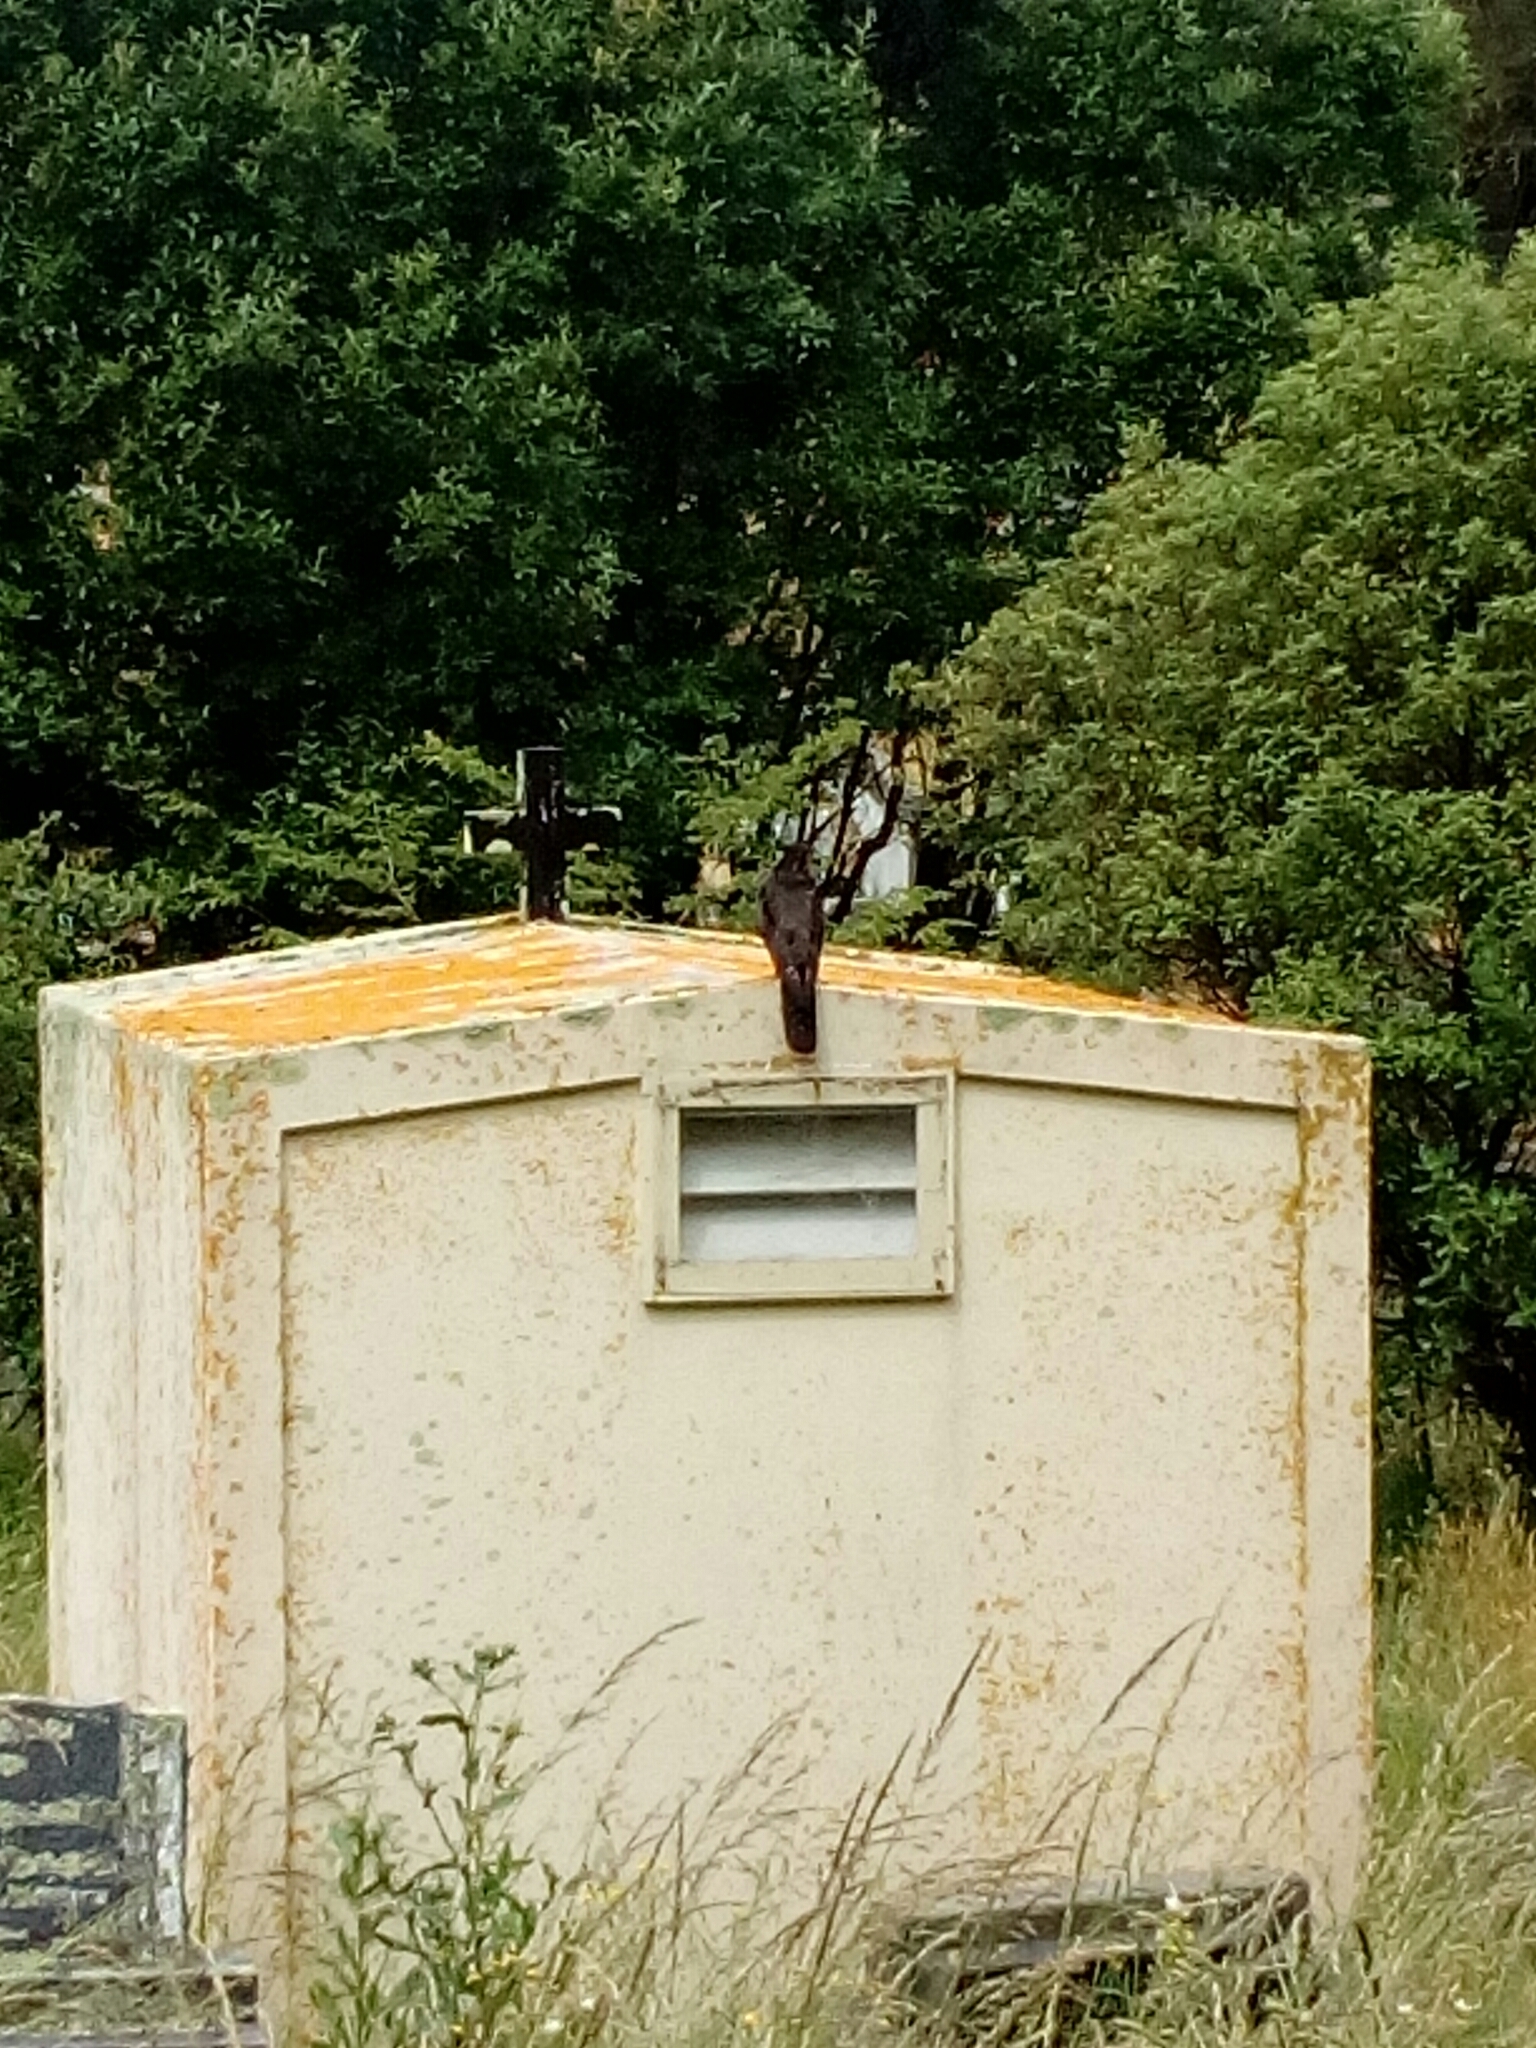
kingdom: Animalia
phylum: Chordata
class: Aves
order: Falconiformes
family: Falconidae
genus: Falco
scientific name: Falco novaeseelandiae
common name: New zealand falcon
